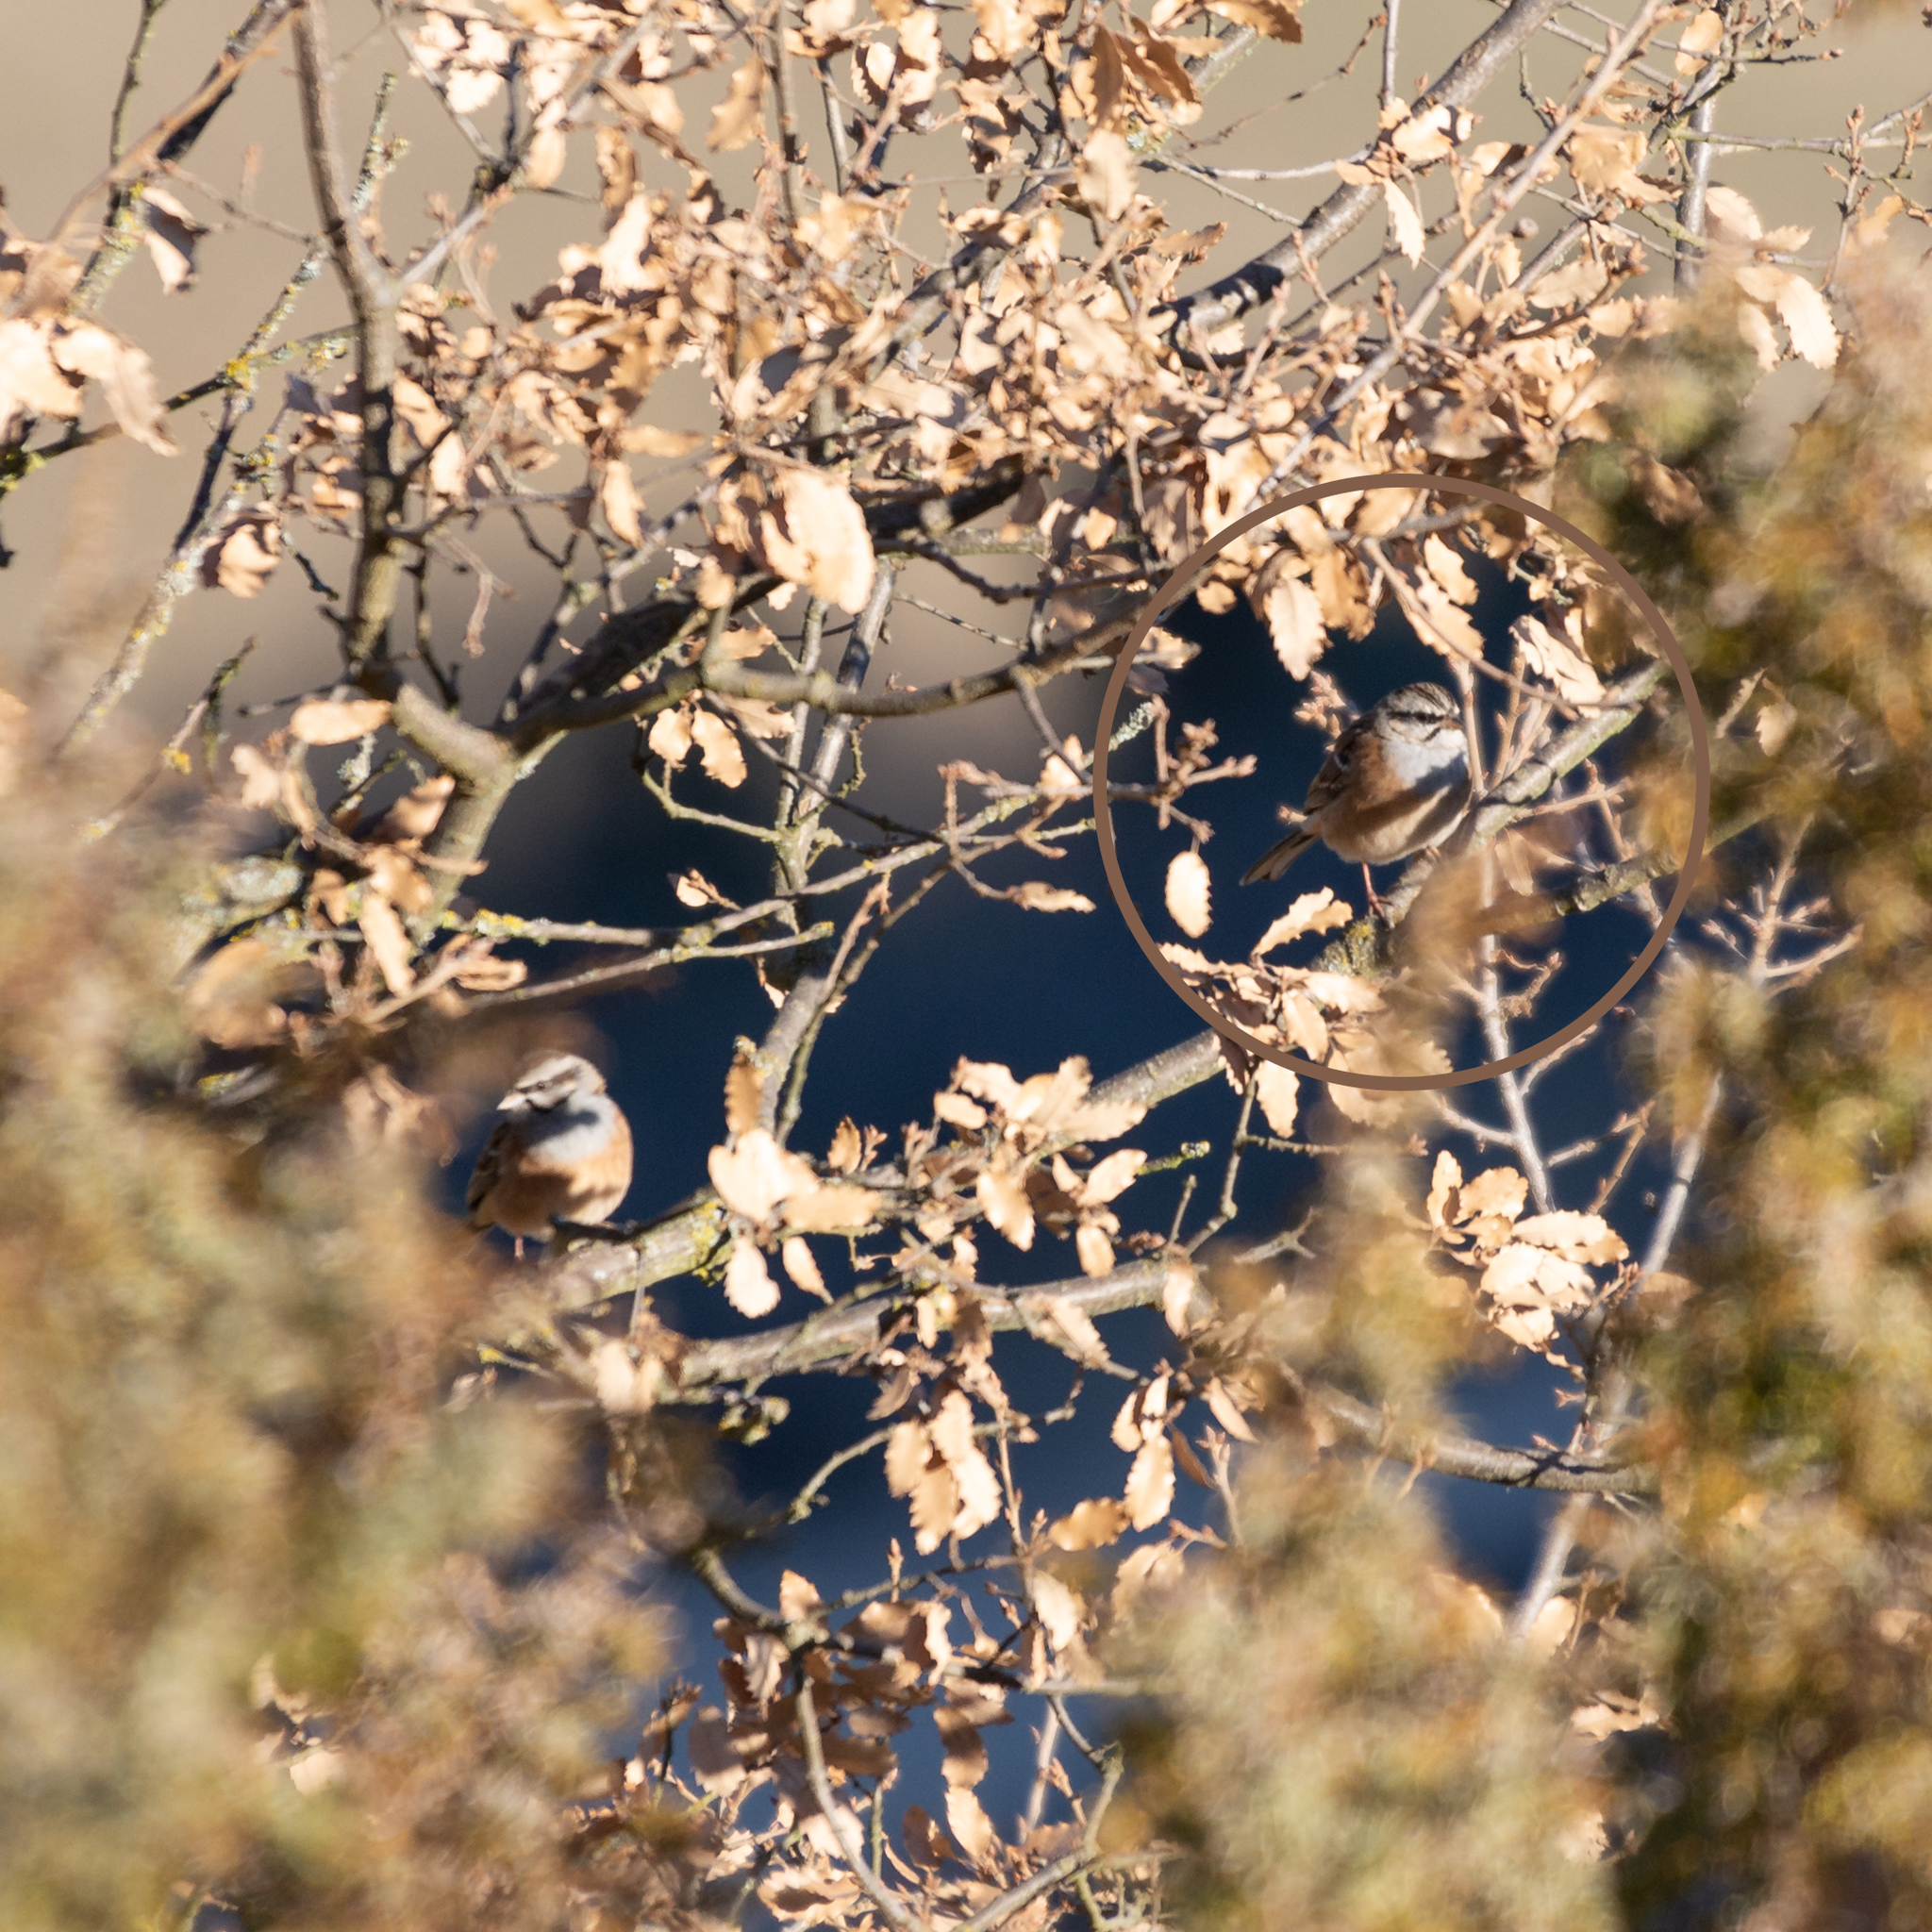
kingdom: Animalia
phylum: Chordata
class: Aves
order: Passeriformes
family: Emberizidae
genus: Emberiza
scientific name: Emberiza cia
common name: Rock bunting
